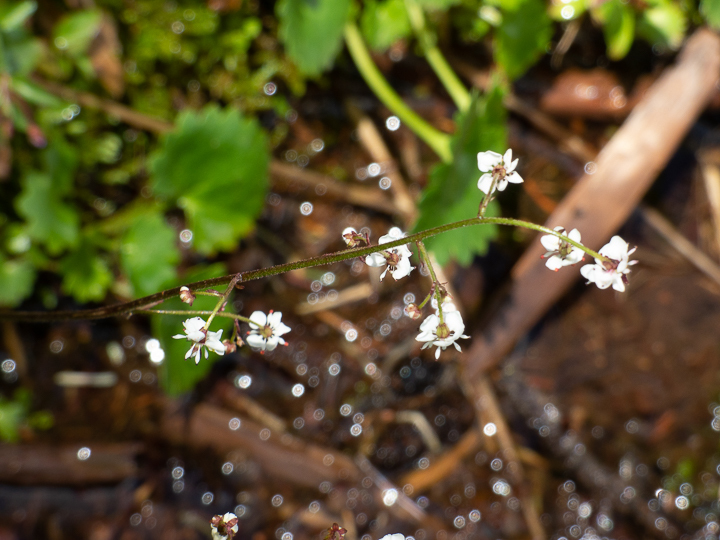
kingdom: Plantae
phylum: Tracheophyta
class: Magnoliopsida
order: Saxifragales
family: Saxifragaceae
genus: Micranthes
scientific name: Micranthes odontoloma
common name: Brook saxifrage
